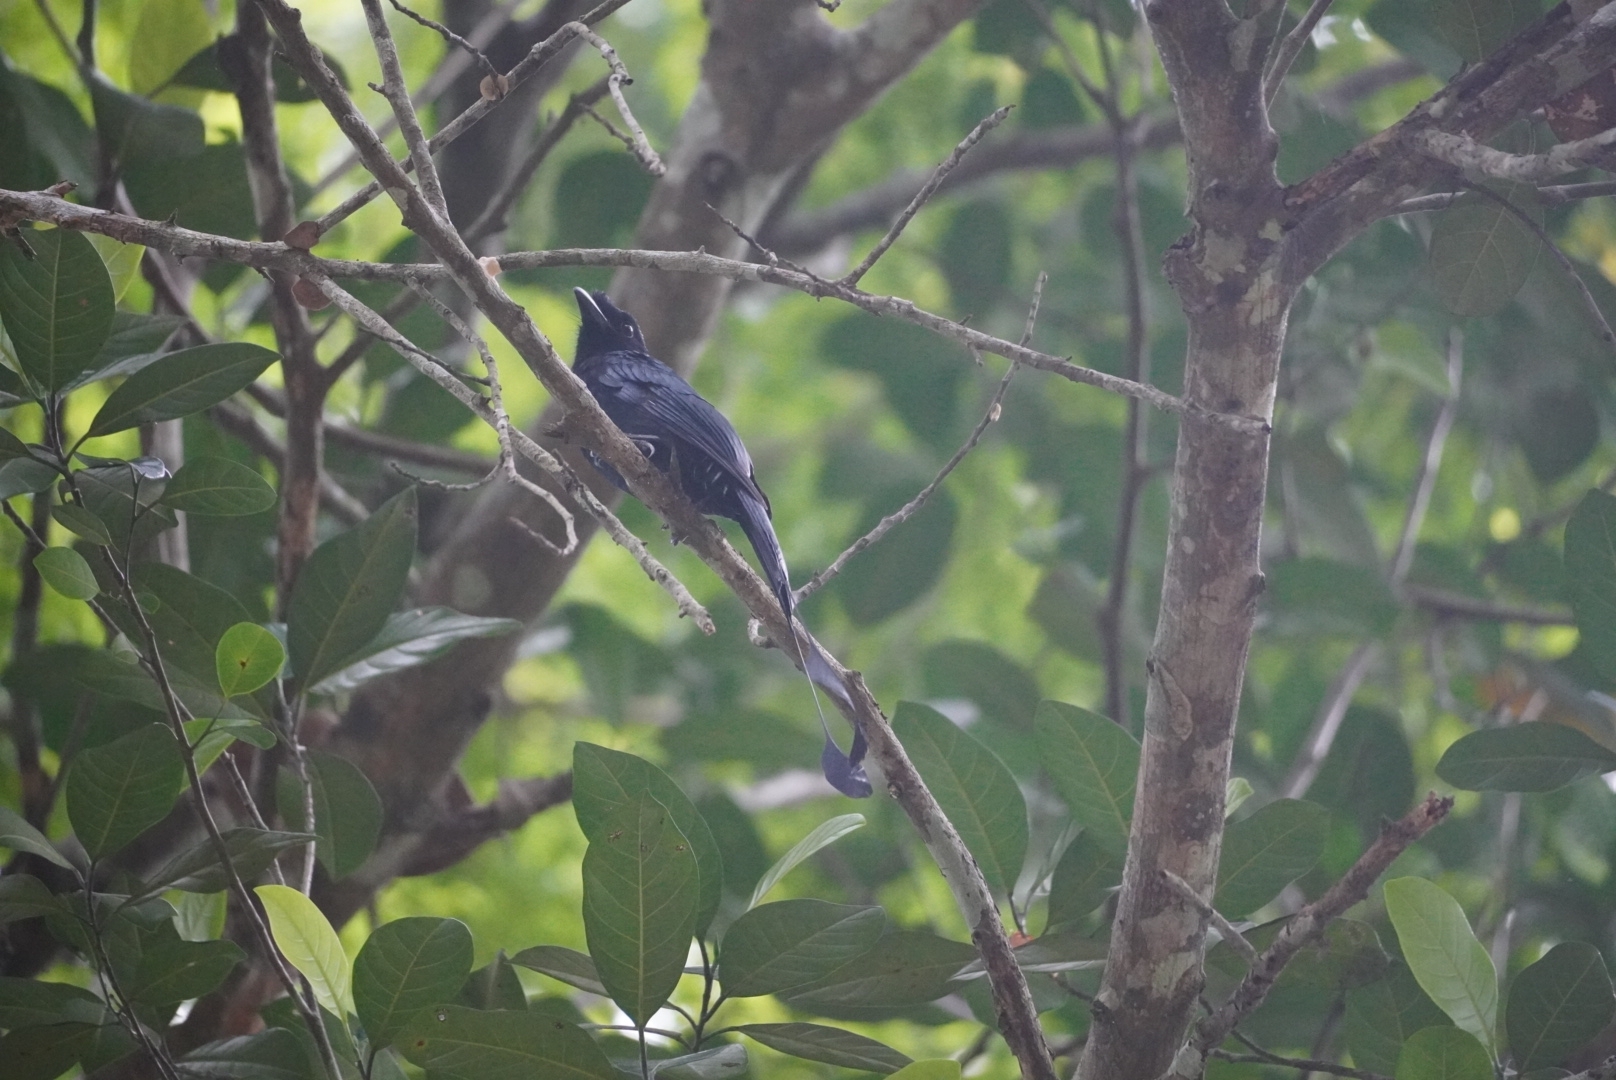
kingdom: Animalia
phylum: Chordata
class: Aves
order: Passeriformes
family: Dicruridae
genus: Dicrurus
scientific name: Dicrurus paradiseus
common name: Greater racket-tailed drongo
